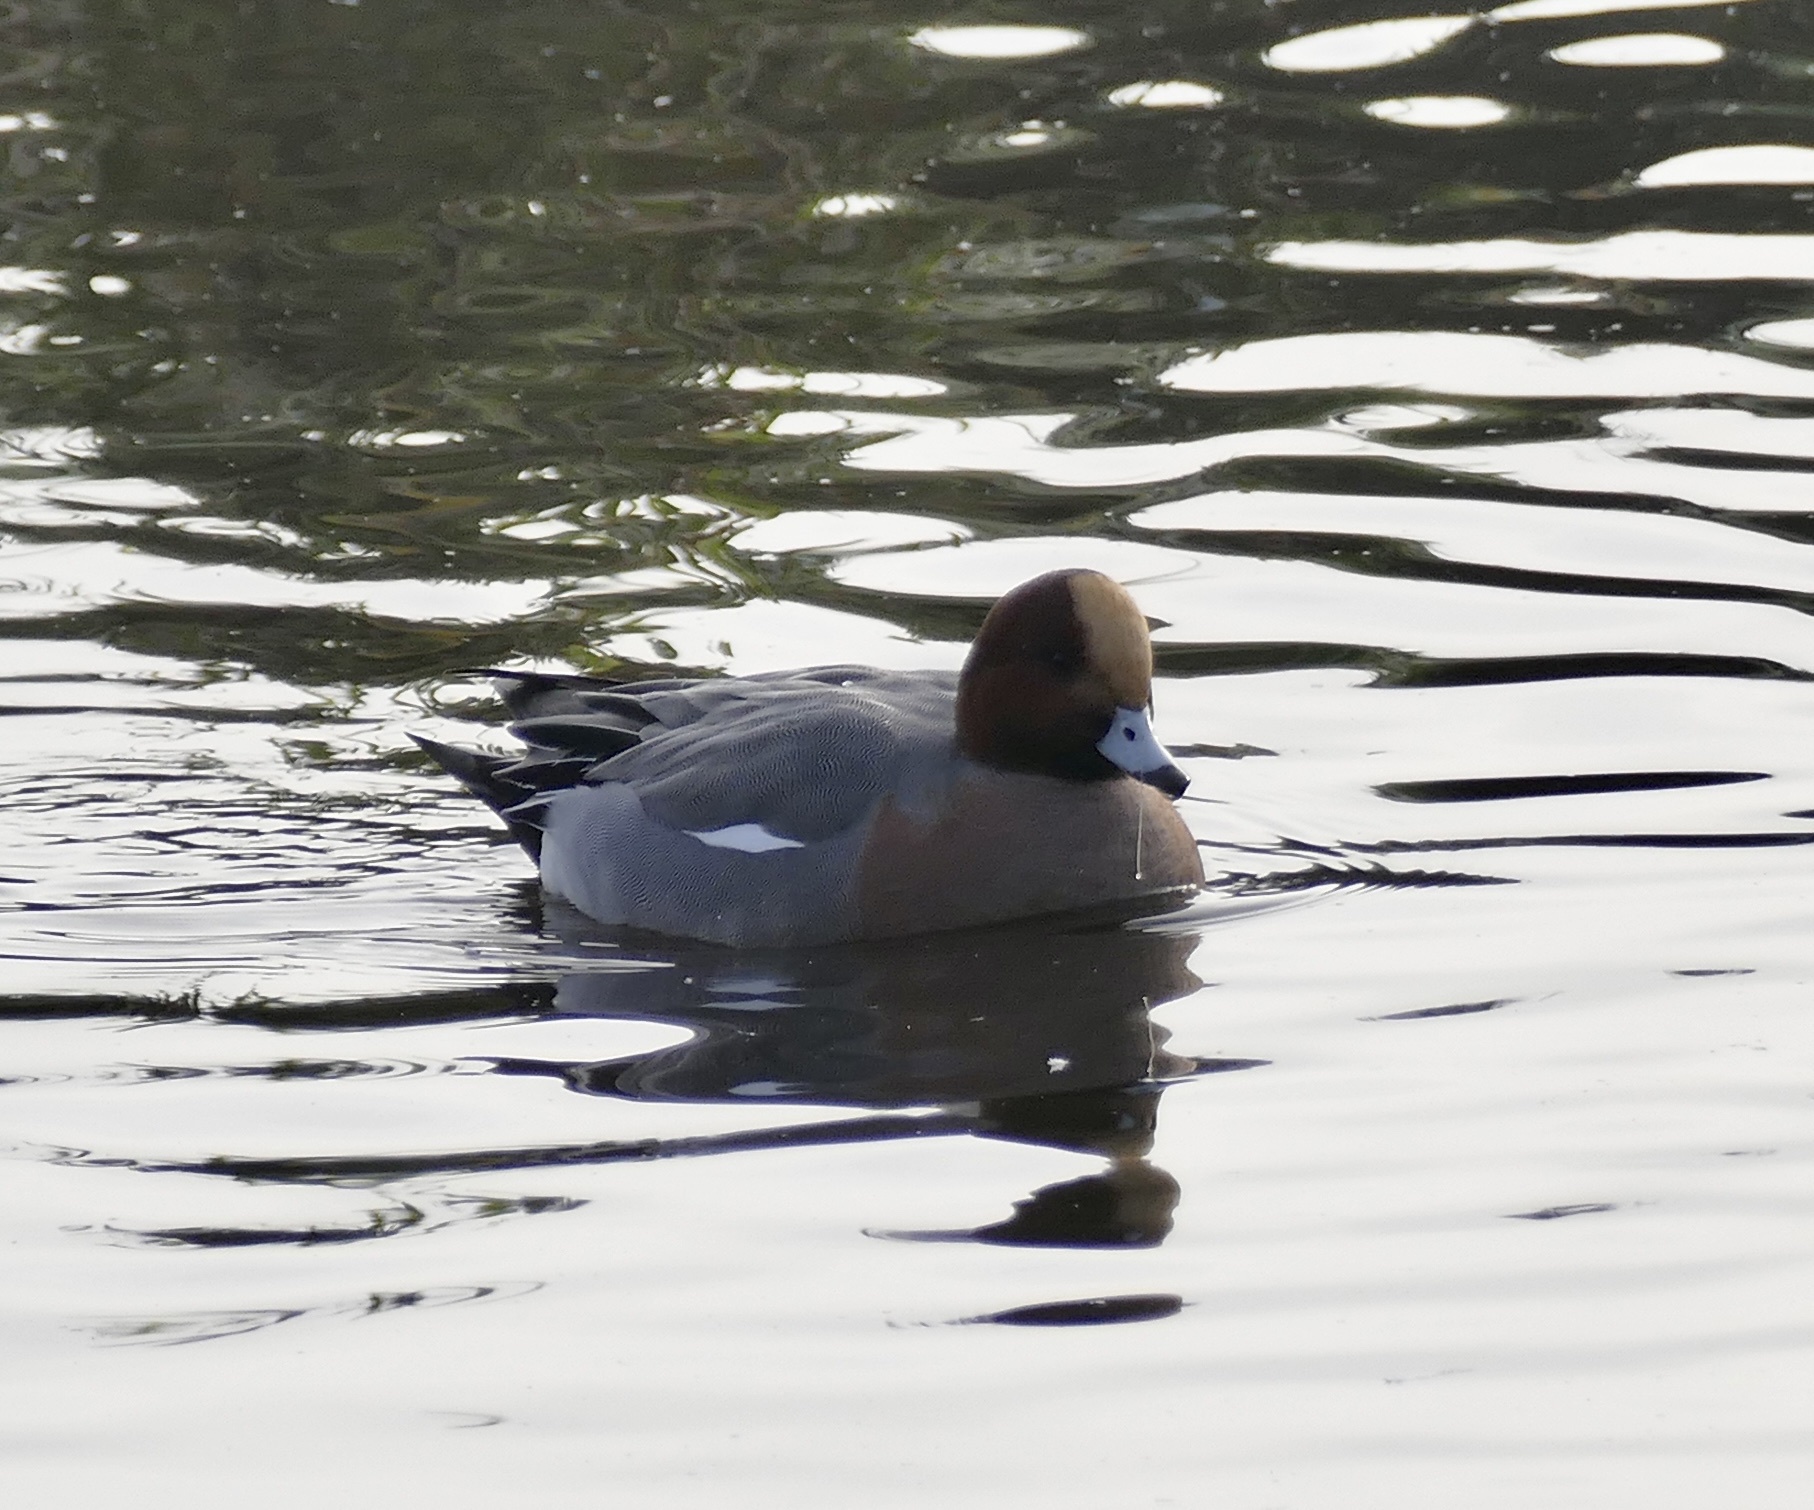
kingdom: Animalia
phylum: Chordata
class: Aves
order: Anseriformes
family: Anatidae
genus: Mareca
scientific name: Mareca penelope
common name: Eurasian wigeon
